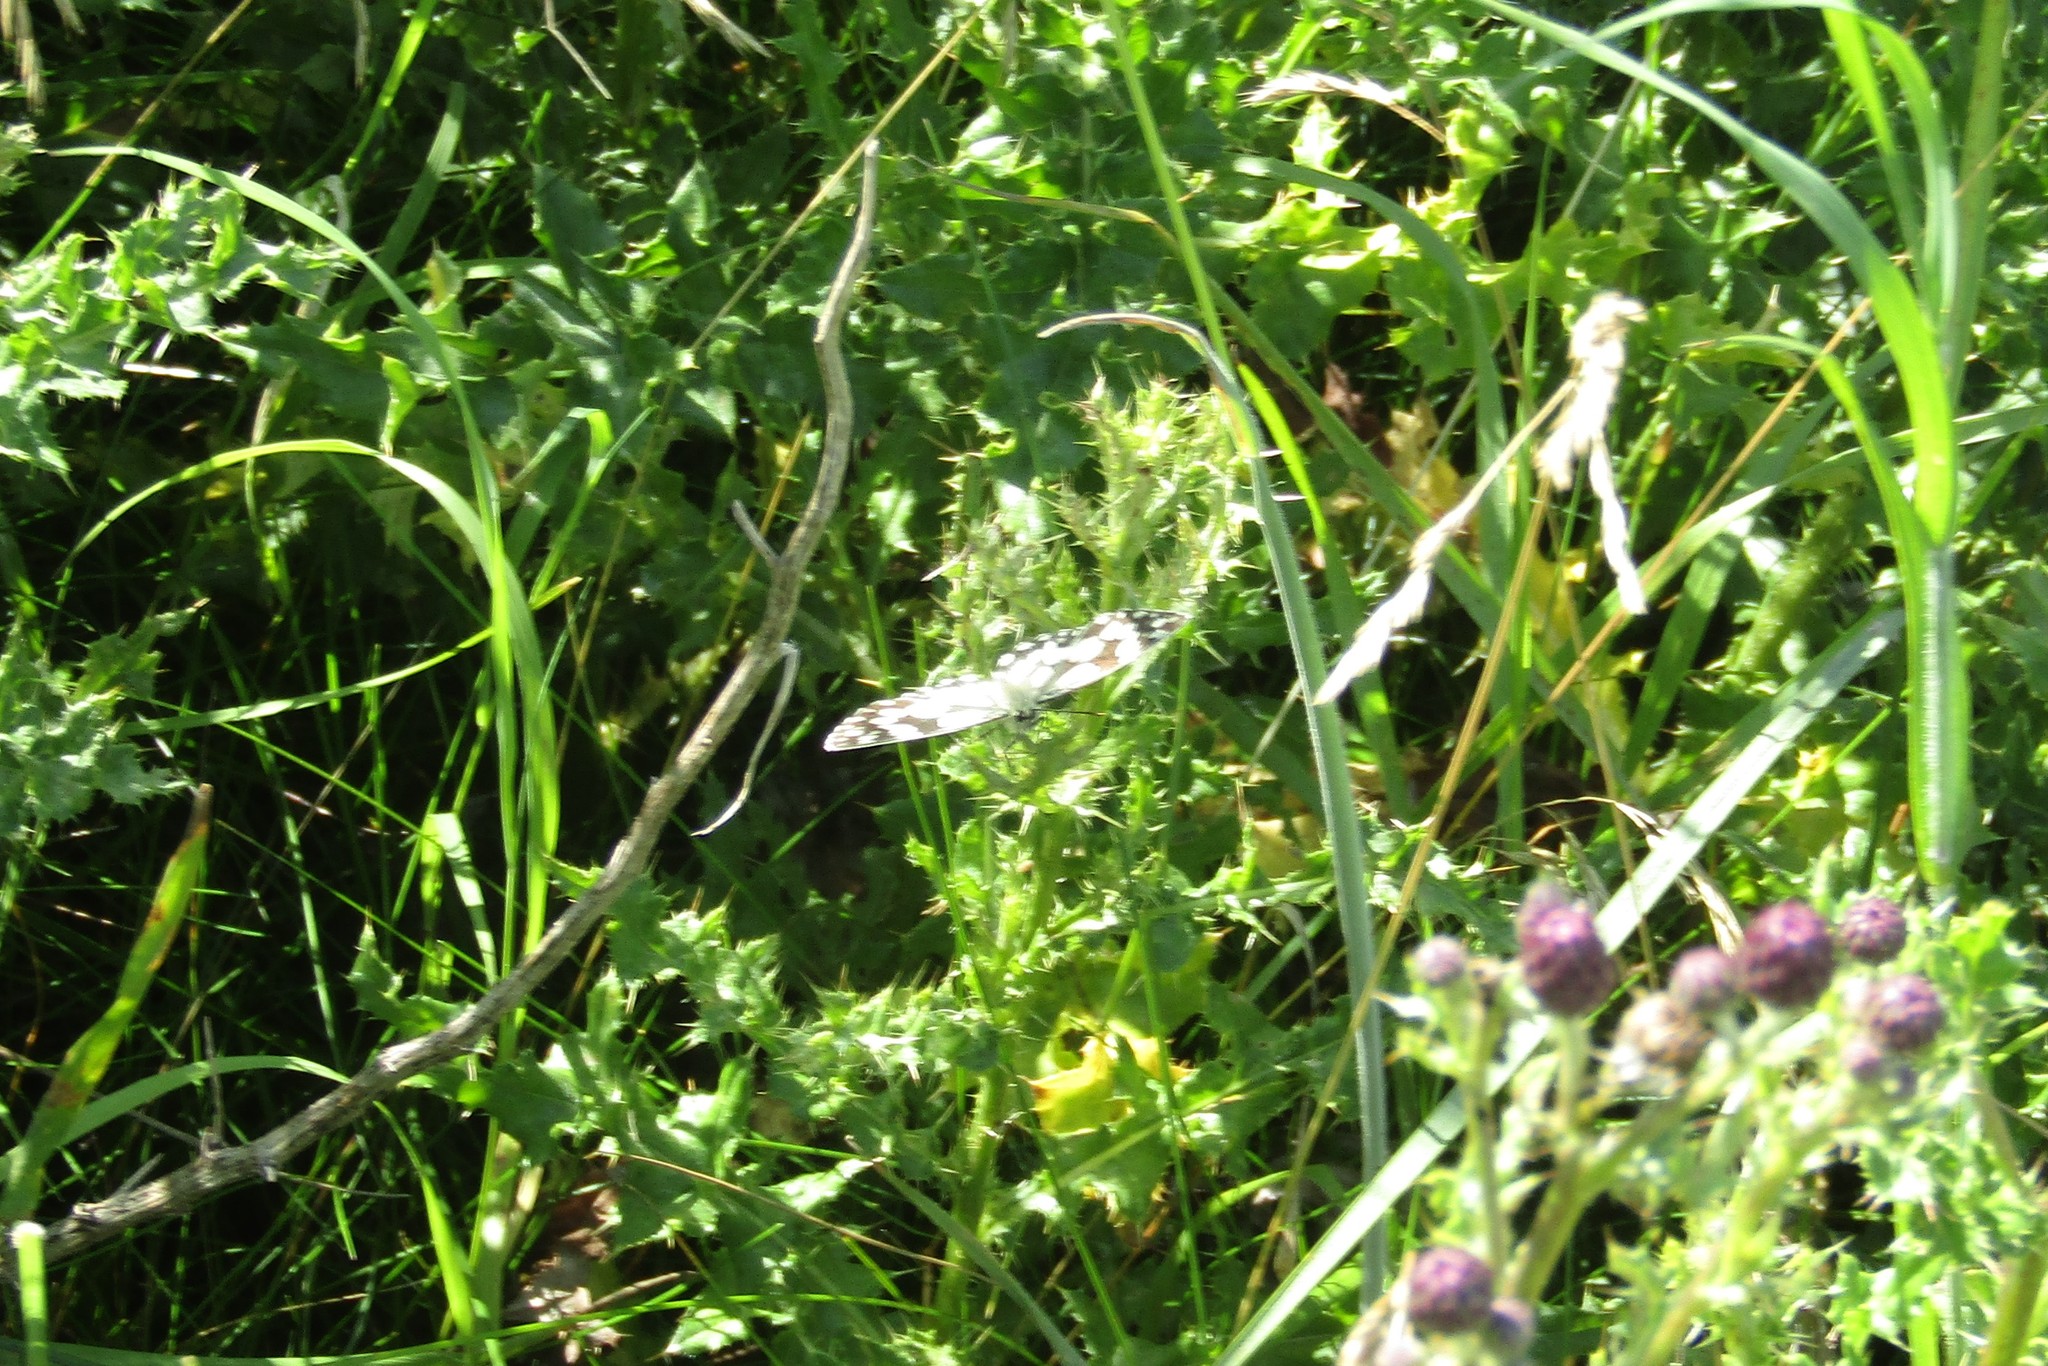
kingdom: Animalia
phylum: Arthropoda
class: Insecta
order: Lepidoptera
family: Nymphalidae
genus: Melanargia
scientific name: Melanargia galathea
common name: Marbled white
